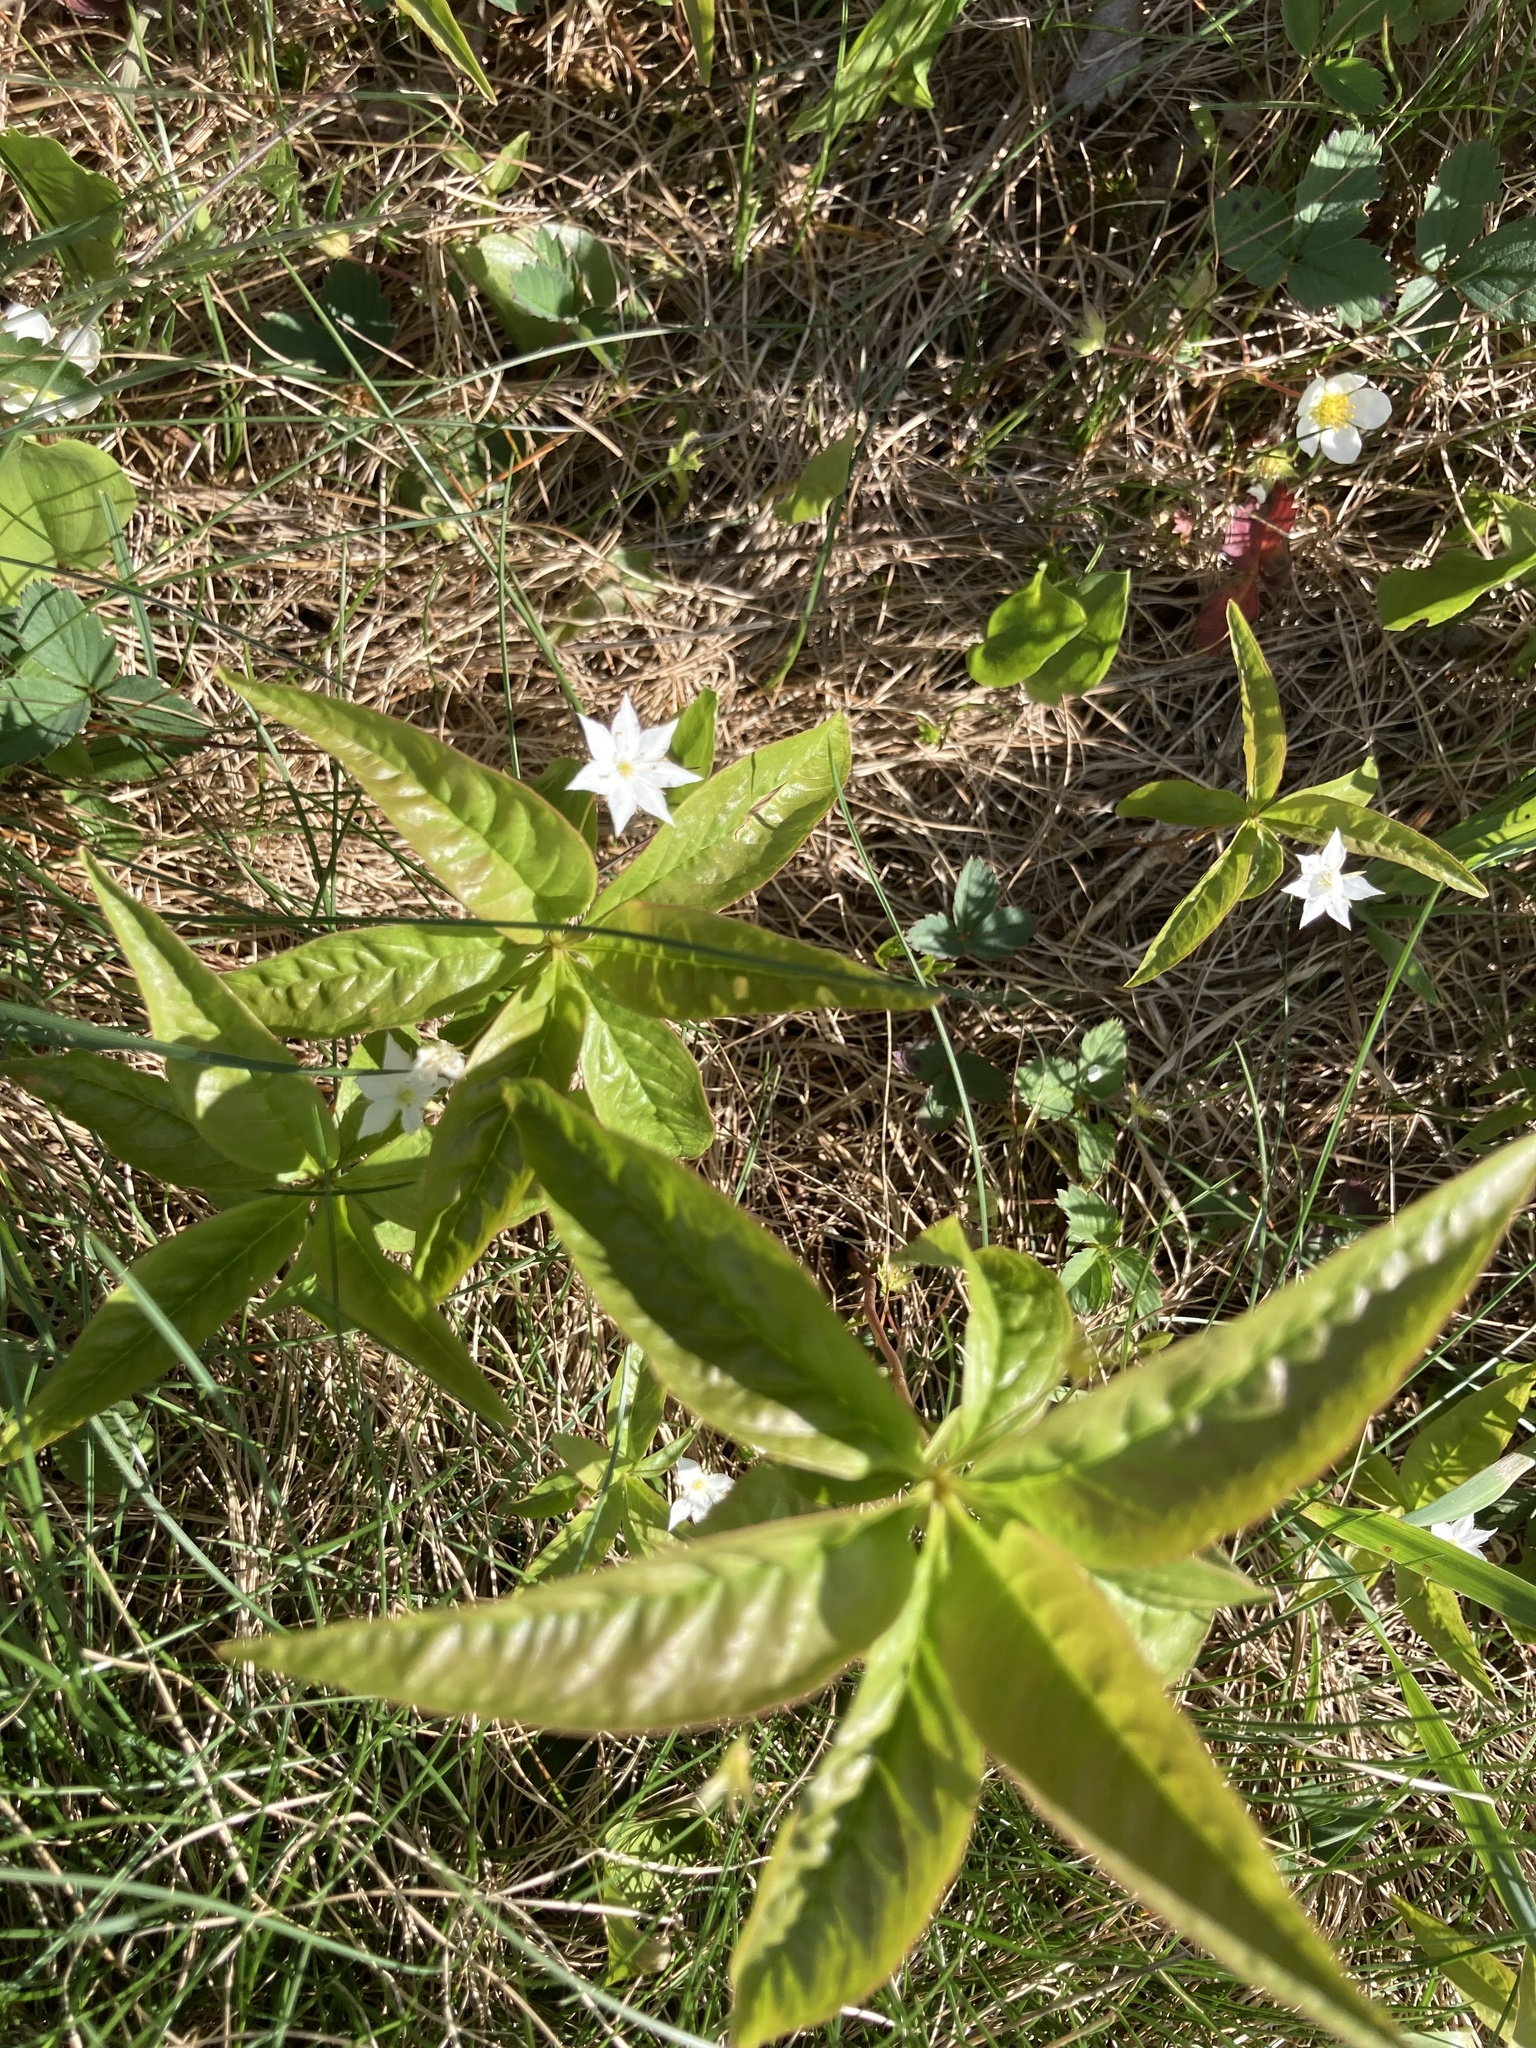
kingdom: Plantae
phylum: Tracheophyta
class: Magnoliopsida
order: Ericales
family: Primulaceae
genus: Lysimachia
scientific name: Lysimachia borealis
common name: American starflower
